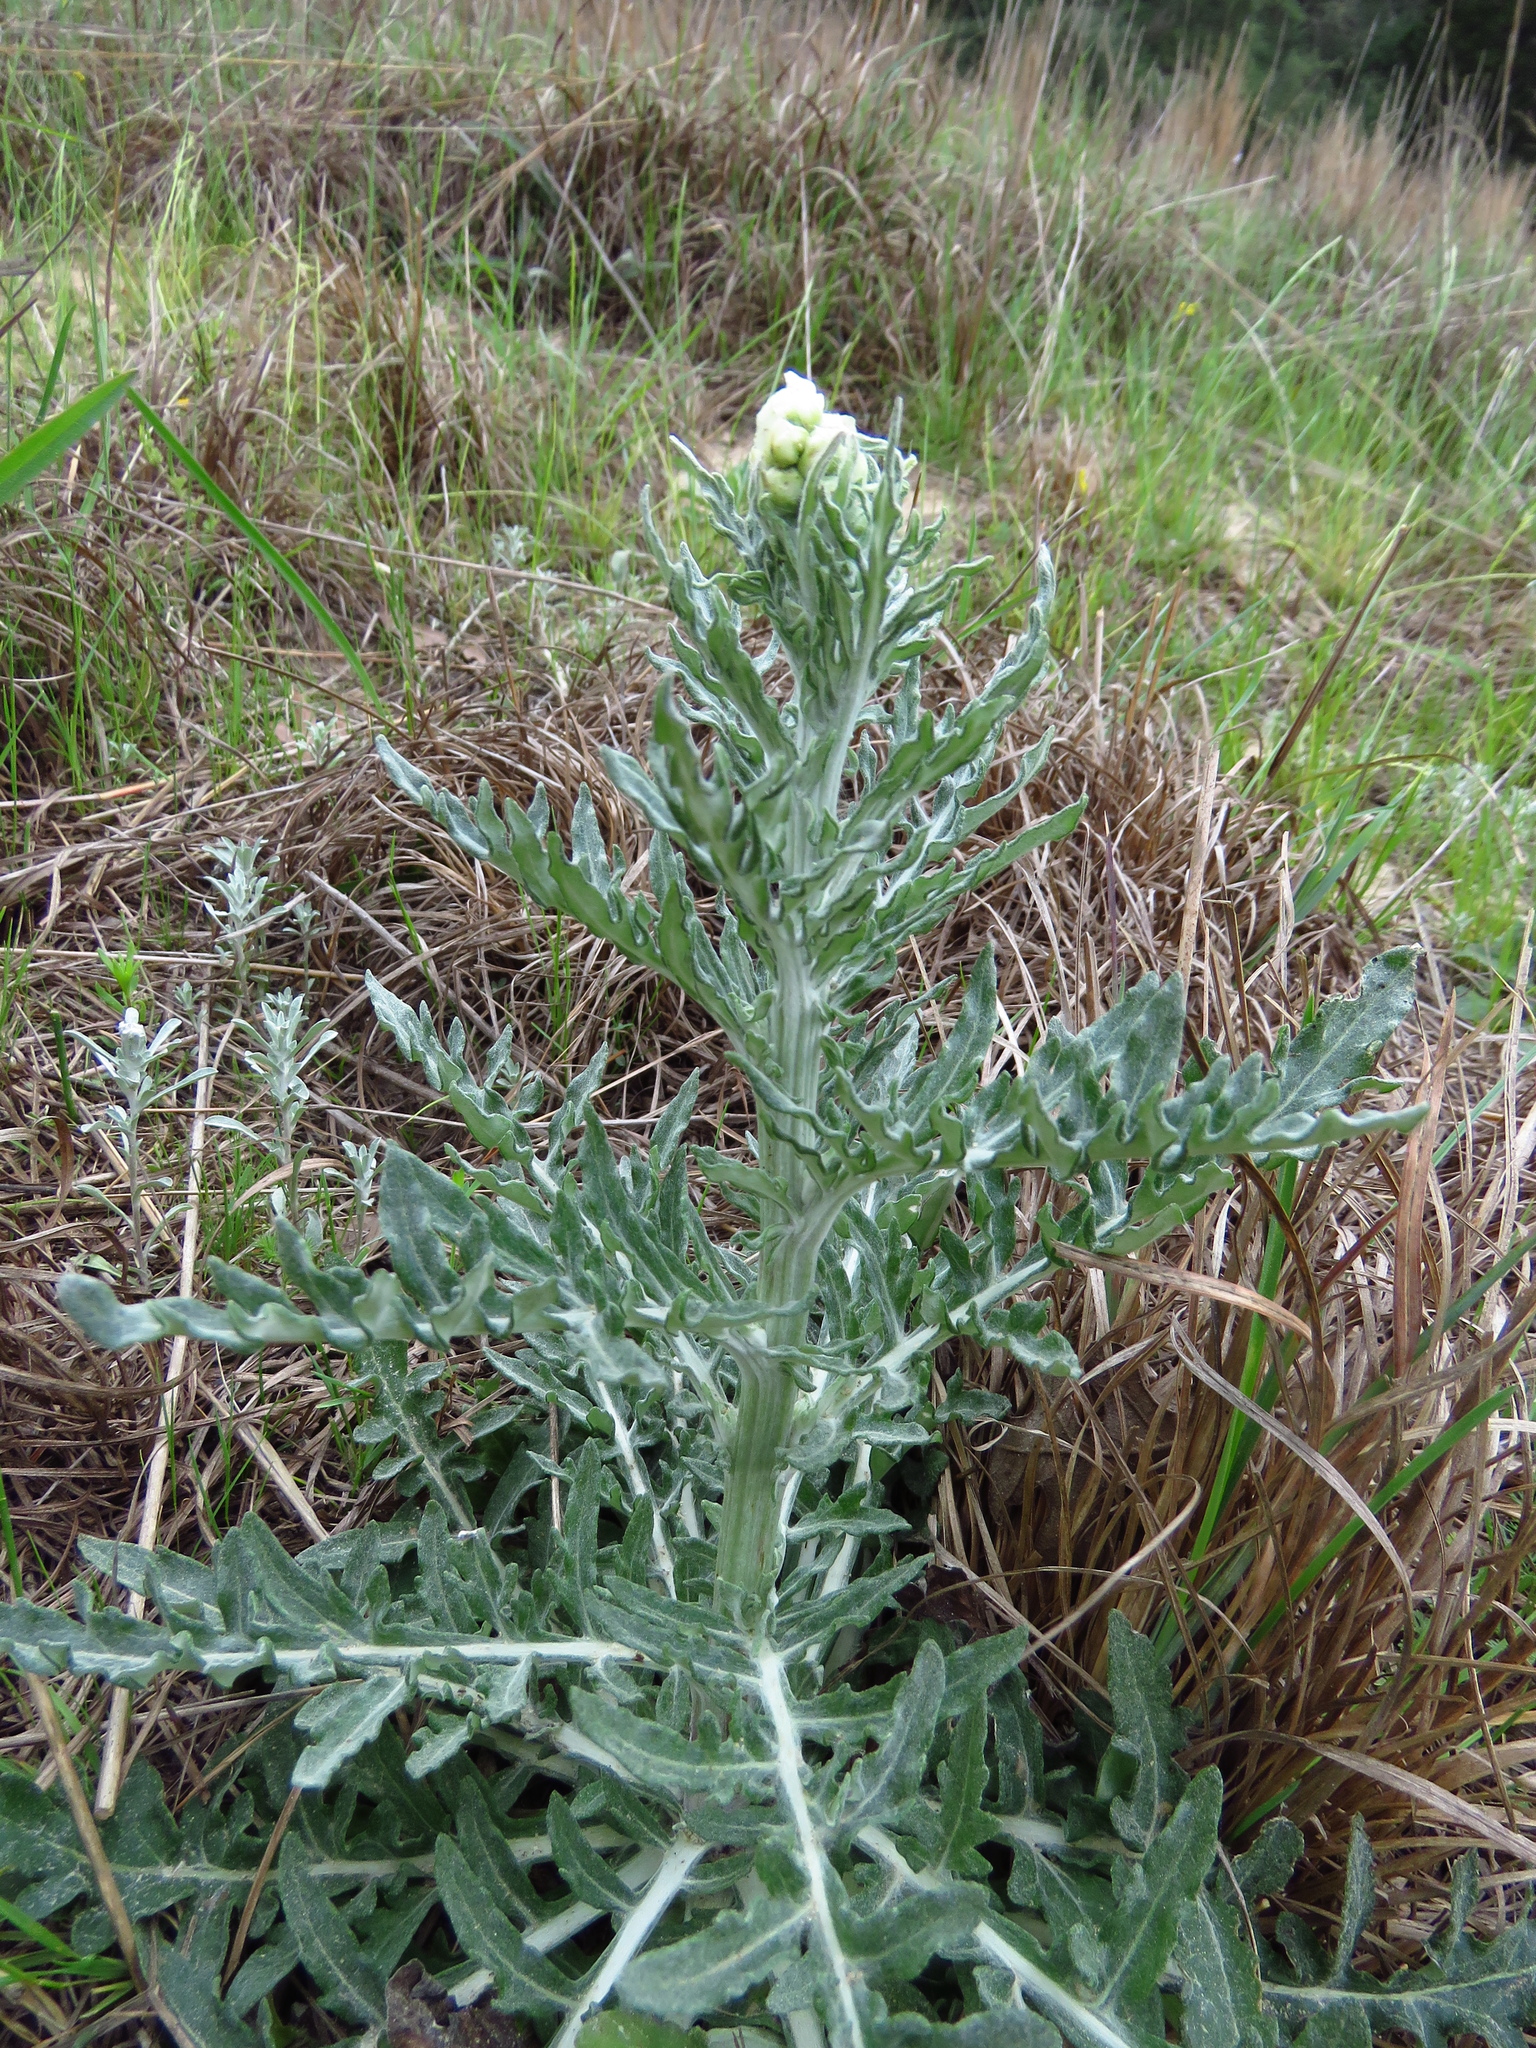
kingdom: Plantae
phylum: Tracheophyta
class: Magnoliopsida
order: Asterales
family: Asteraceae
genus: Hymenopappus
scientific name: Hymenopappus artemisiifolius
